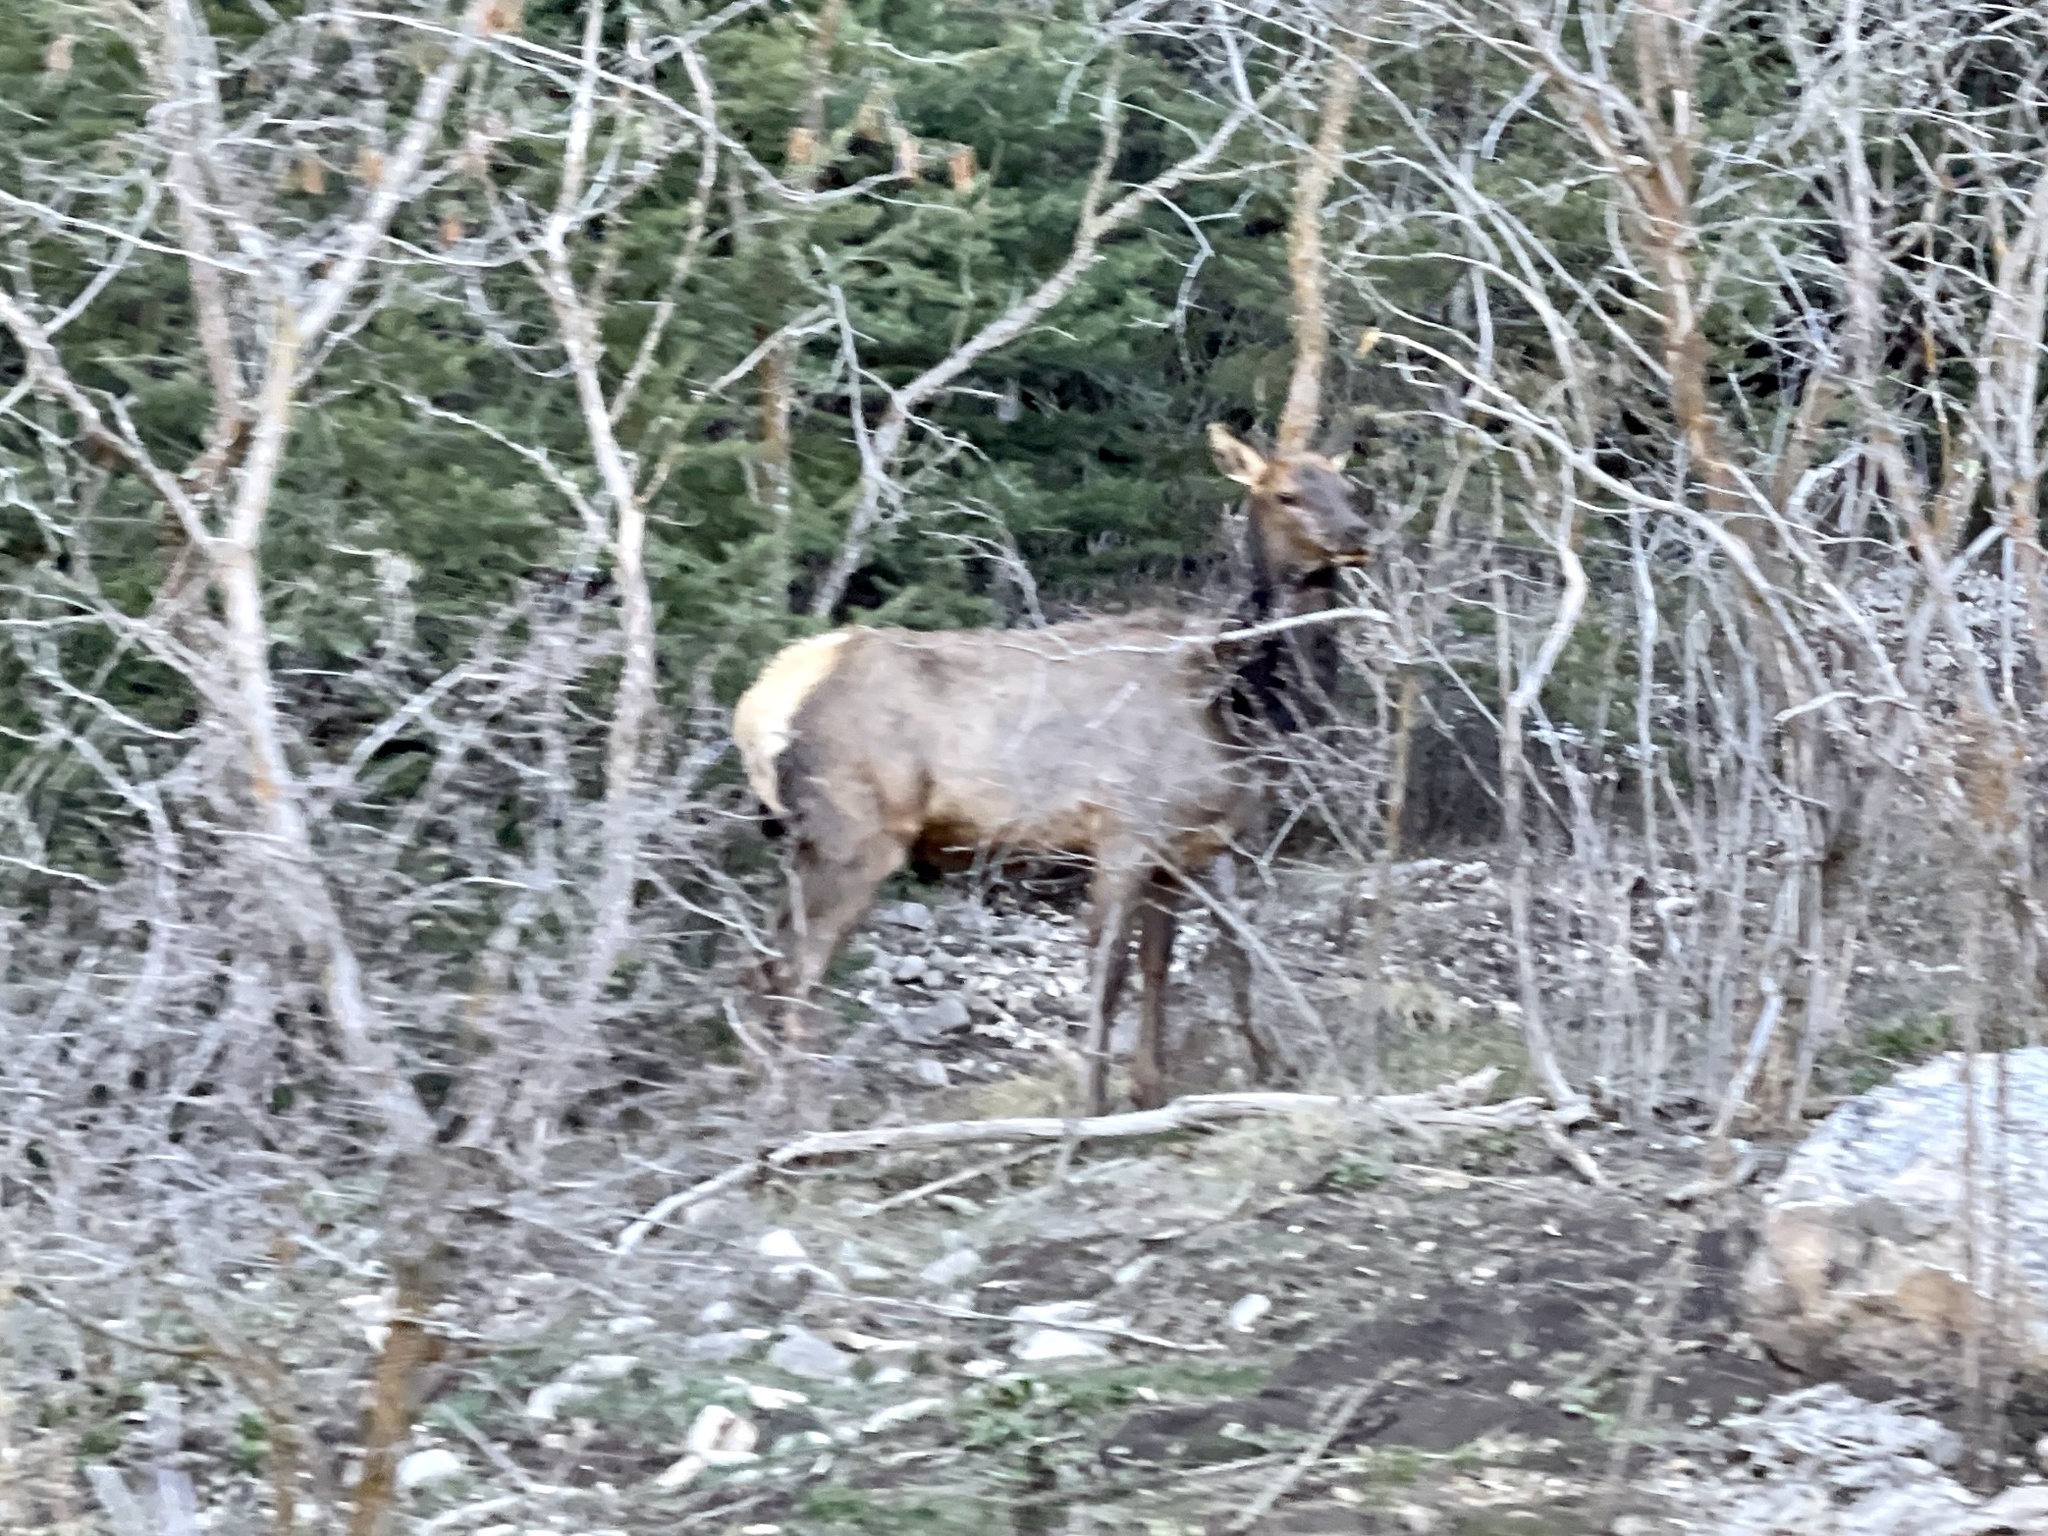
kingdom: Animalia
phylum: Chordata
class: Mammalia
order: Artiodactyla
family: Cervidae
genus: Cervus
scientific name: Cervus elaphus
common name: Red deer
